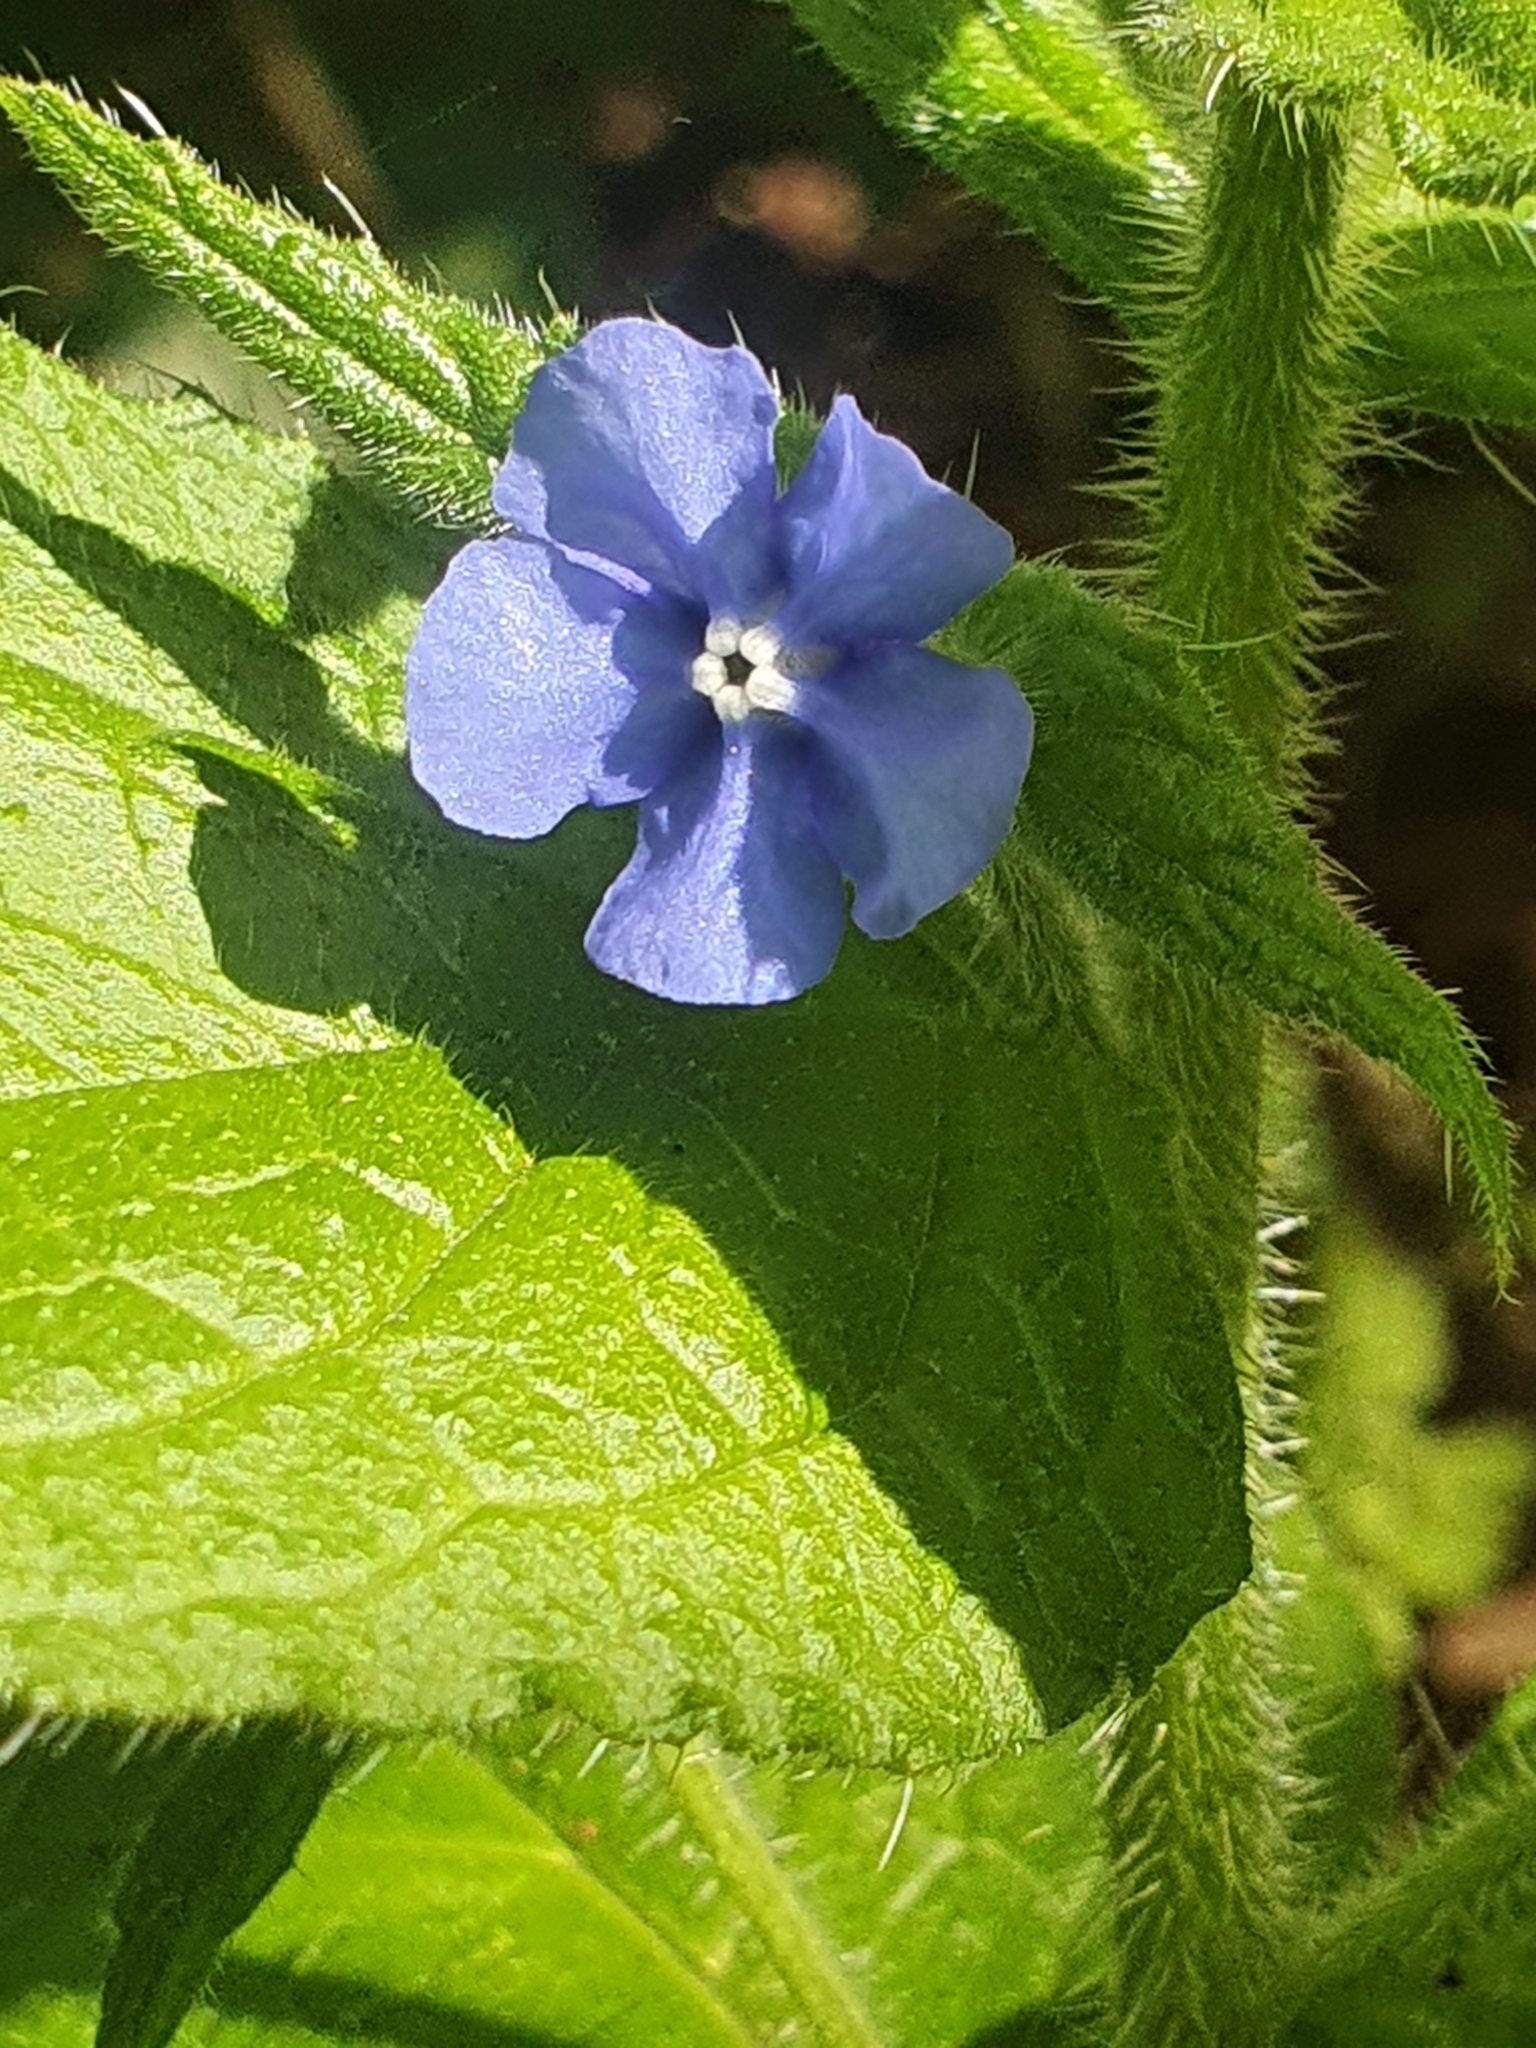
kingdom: Plantae
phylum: Tracheophyta
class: Magnoliopsida
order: Boraginales
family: Boraginaceae
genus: Pentaglottis
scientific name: Pentaglottis sempervirens
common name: Green alkanet
